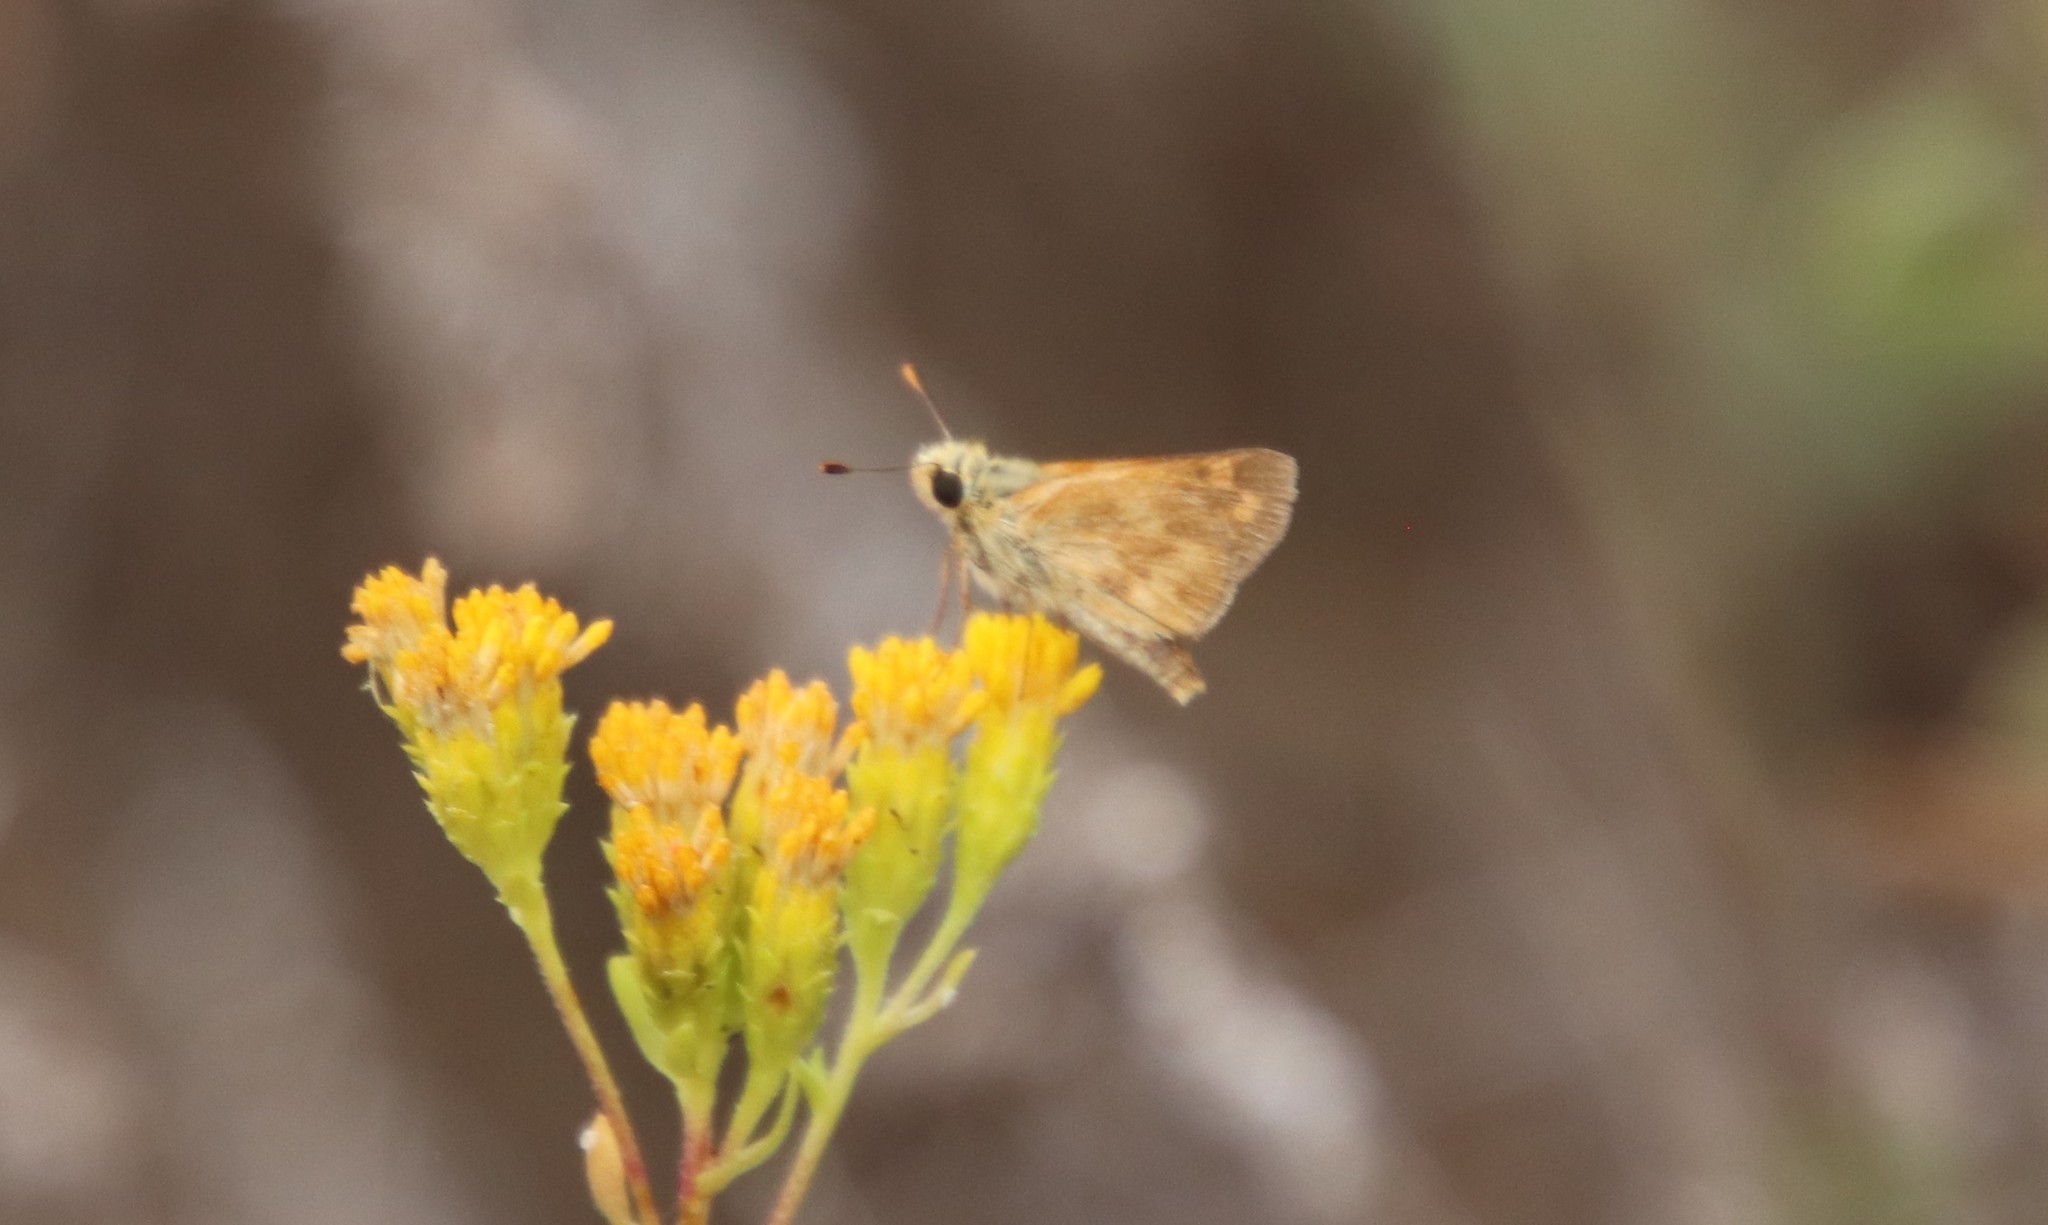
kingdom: Animalia
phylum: Arthropoda
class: Insecta
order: Lepidoptera
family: Hesperiidae
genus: Ochlodes
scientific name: Ochlodes sylvanoides
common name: Woodland skipper
